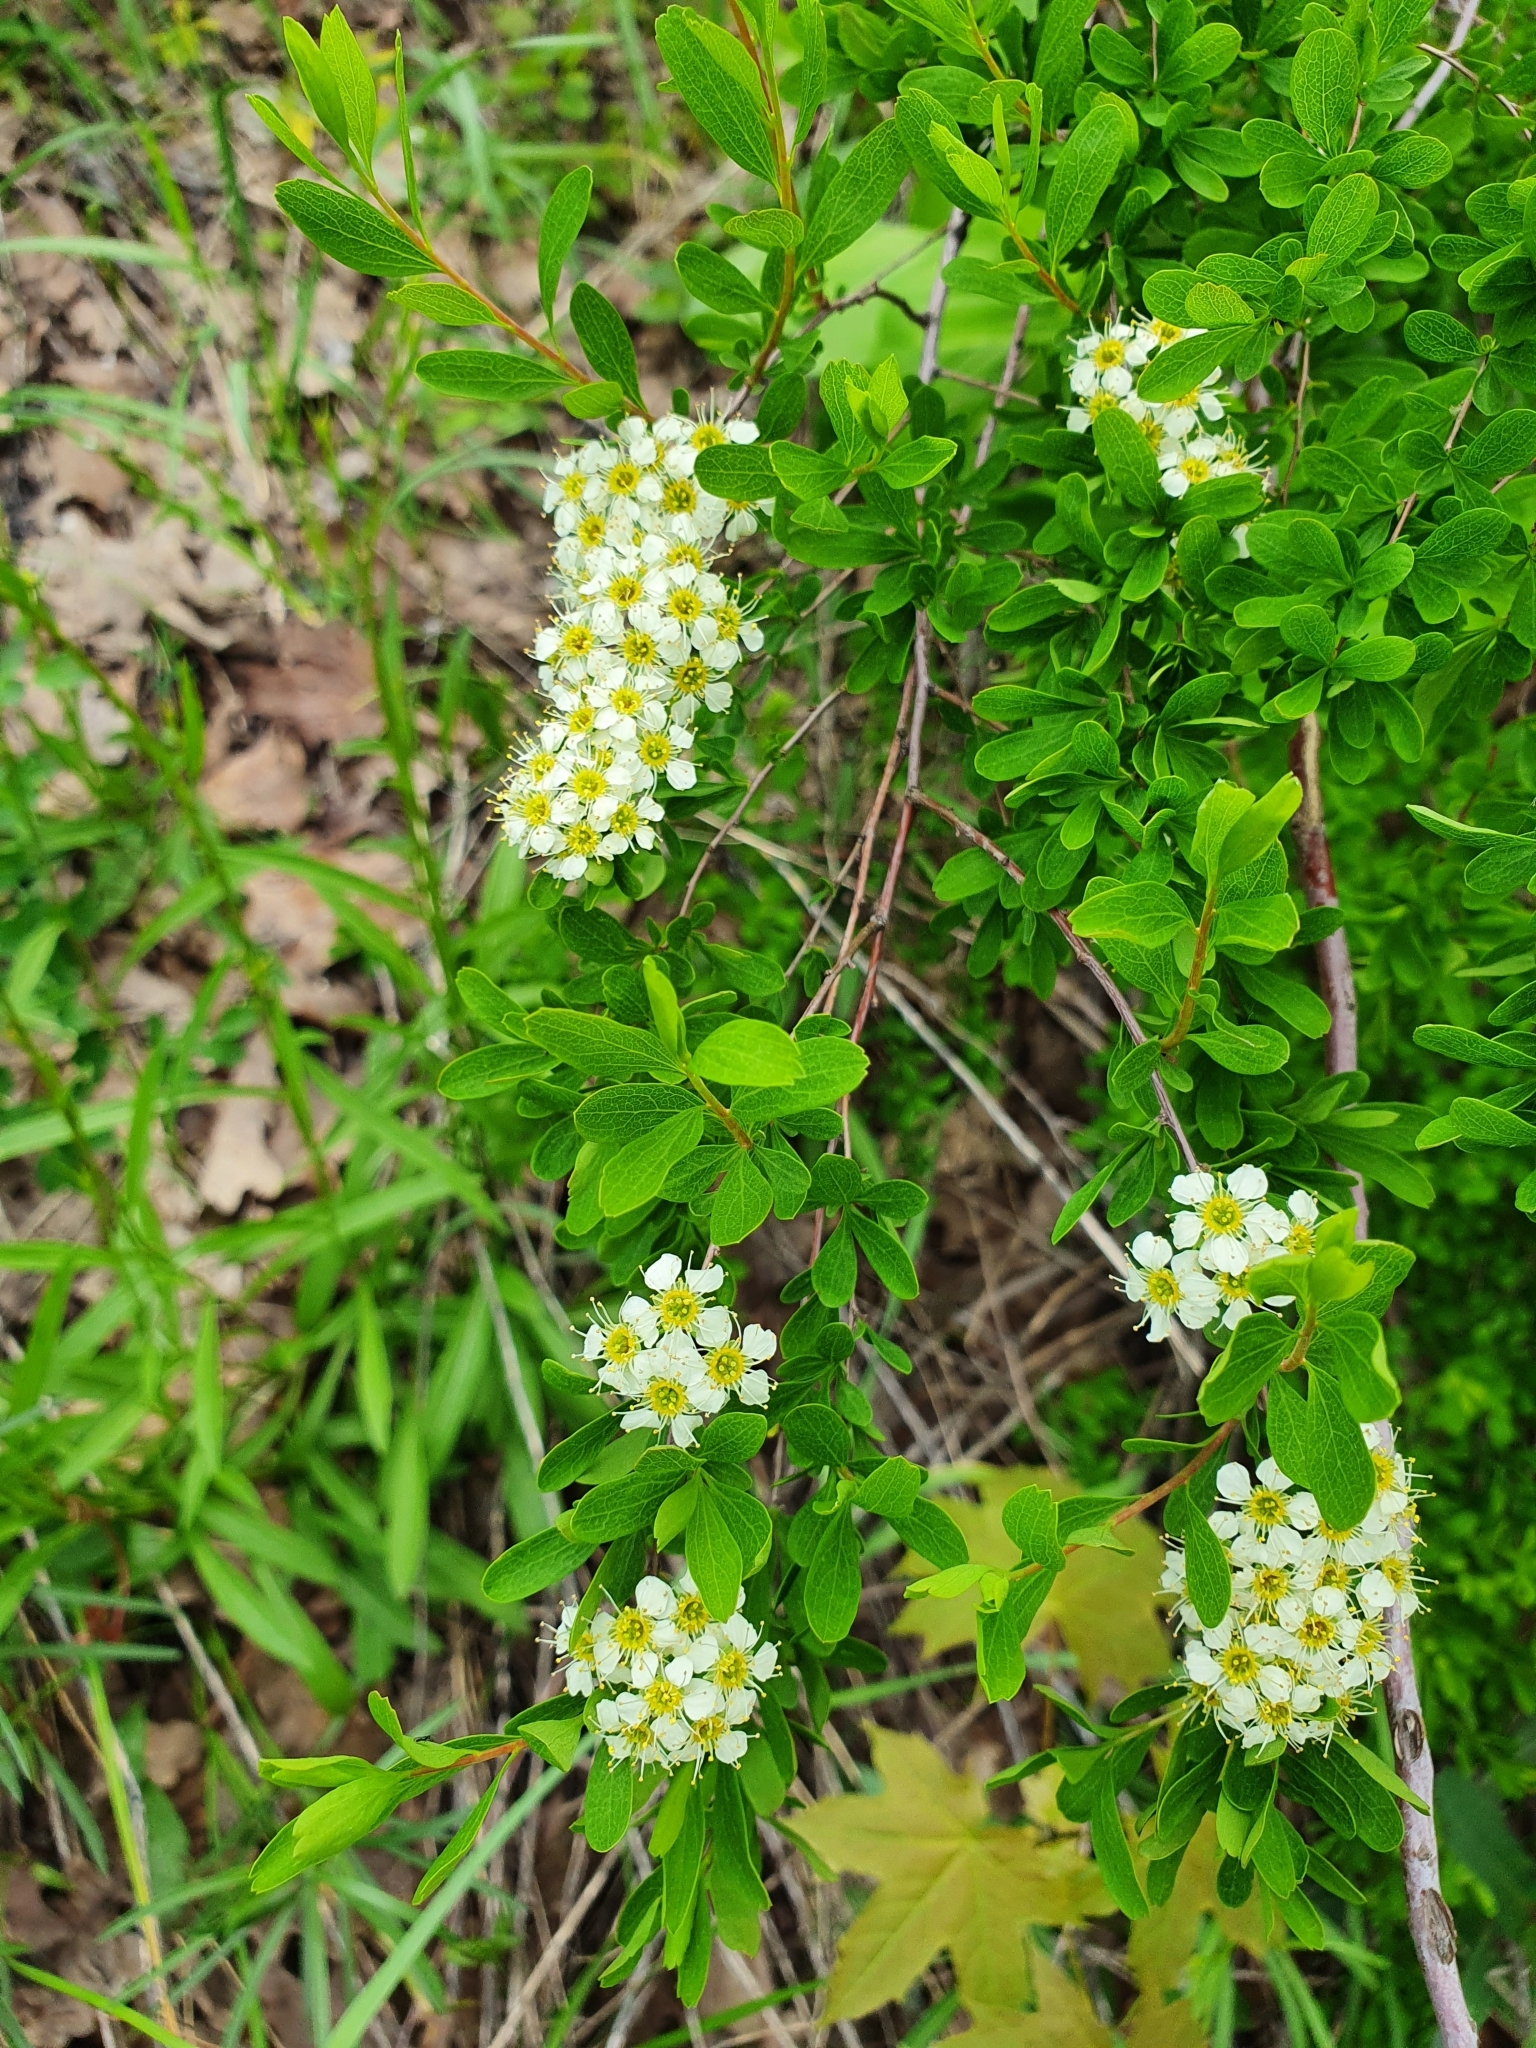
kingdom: Plantae
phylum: Tracheophyta
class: Magnoliopsida
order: Rosales
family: Rosaceae
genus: Spiraea
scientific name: Spiraea hypericifolia
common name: Iberian spirea
